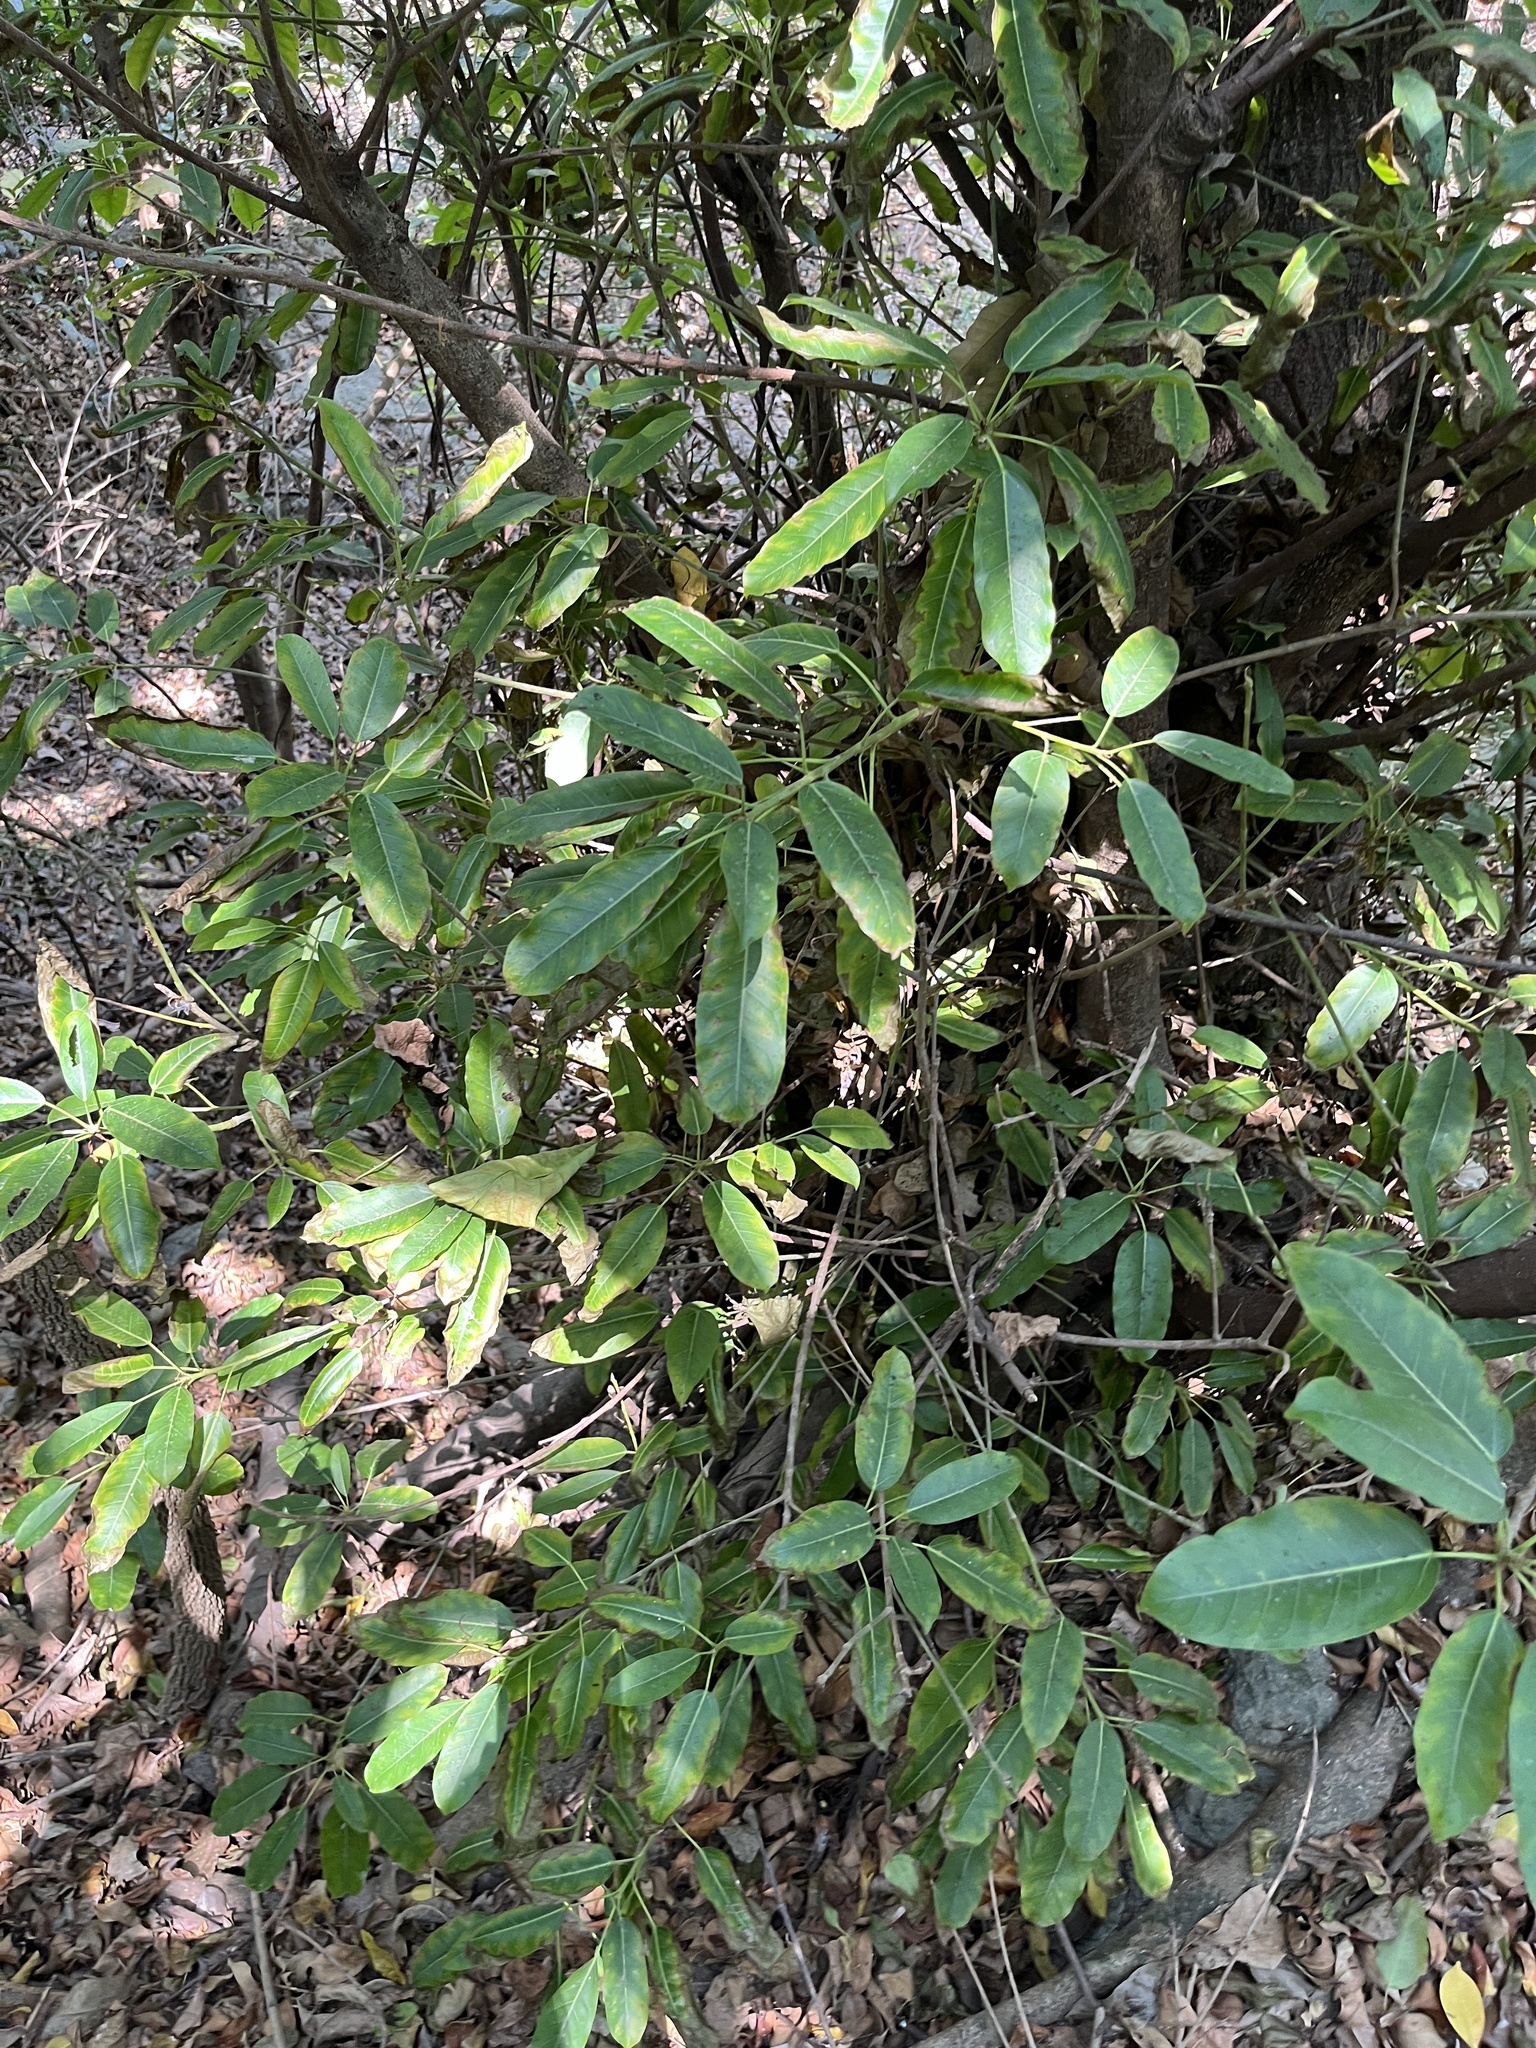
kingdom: Plantae
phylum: Tracheophyta
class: Magnoliopsida
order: Rosales
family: Moraceae
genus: Ficus
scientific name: Ficus subpisocarpa
